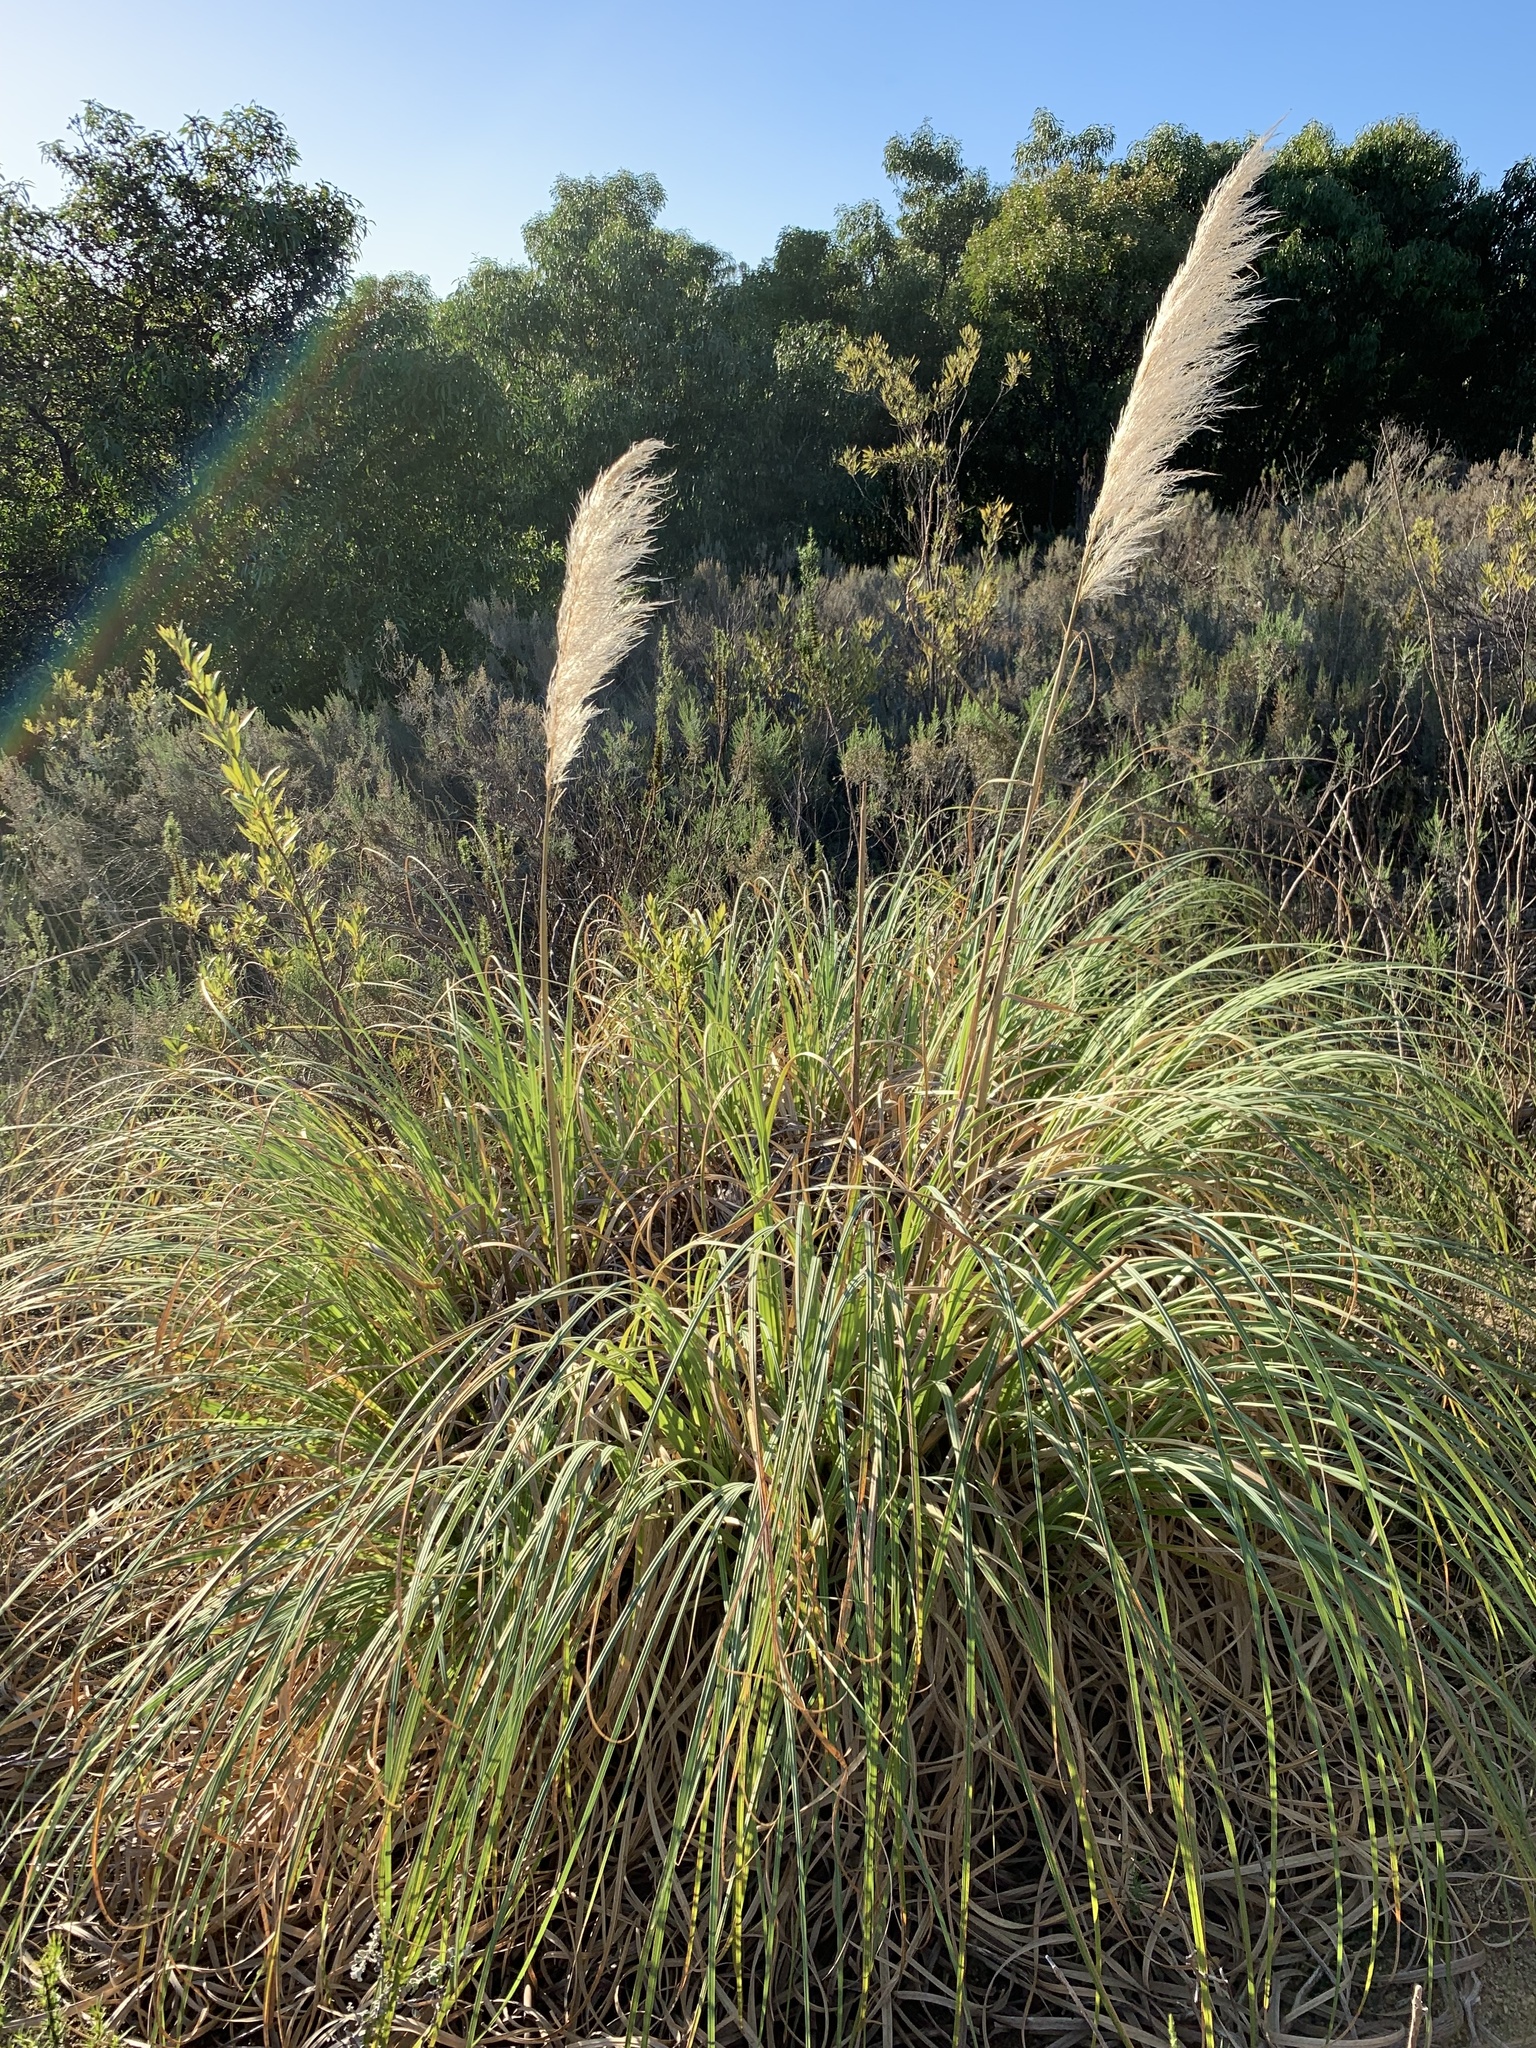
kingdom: Plantae
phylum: Tracheophyta
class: Liliopsida
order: Poales
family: Poaceae
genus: Cortaderia
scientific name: Cortaderia selloana
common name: Uruguayan pampas grass
